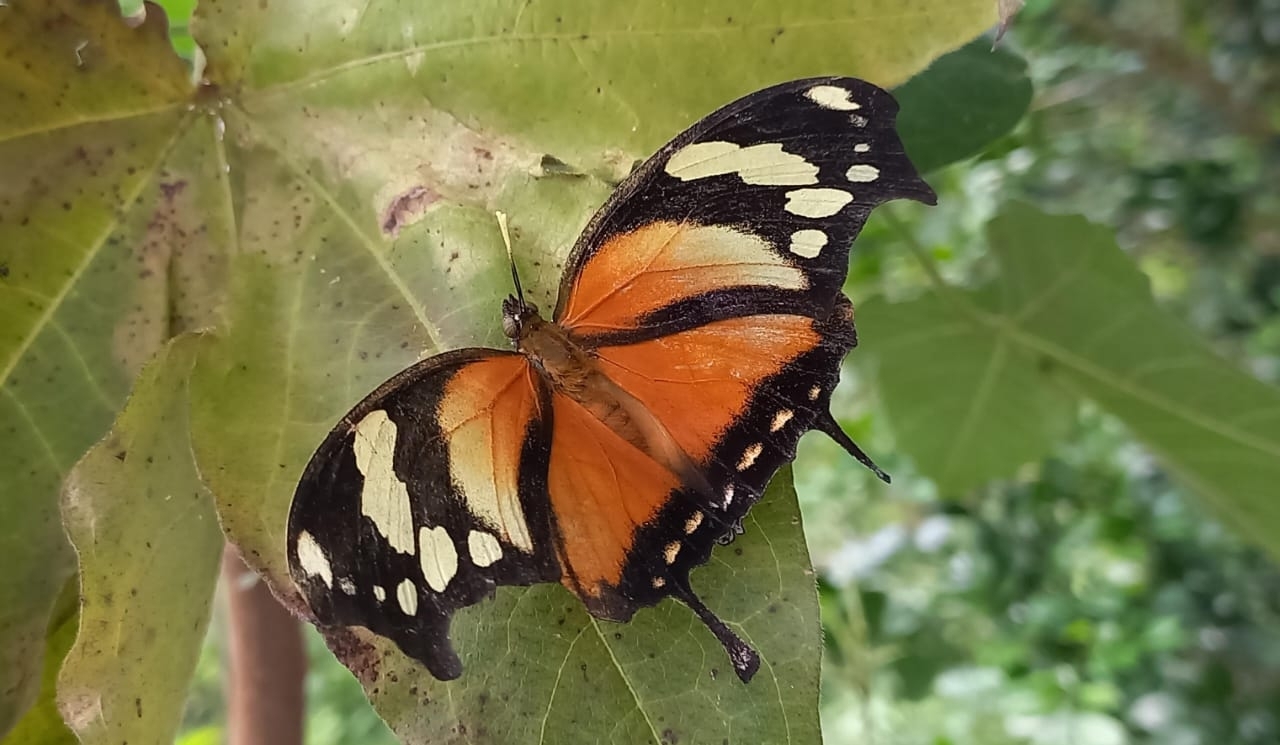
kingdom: Animalia
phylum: Arthropoda
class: Insecta
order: Lepidoptera
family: Nymphalidae
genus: Consul
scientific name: Consul fabius
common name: Tiger leafwing
